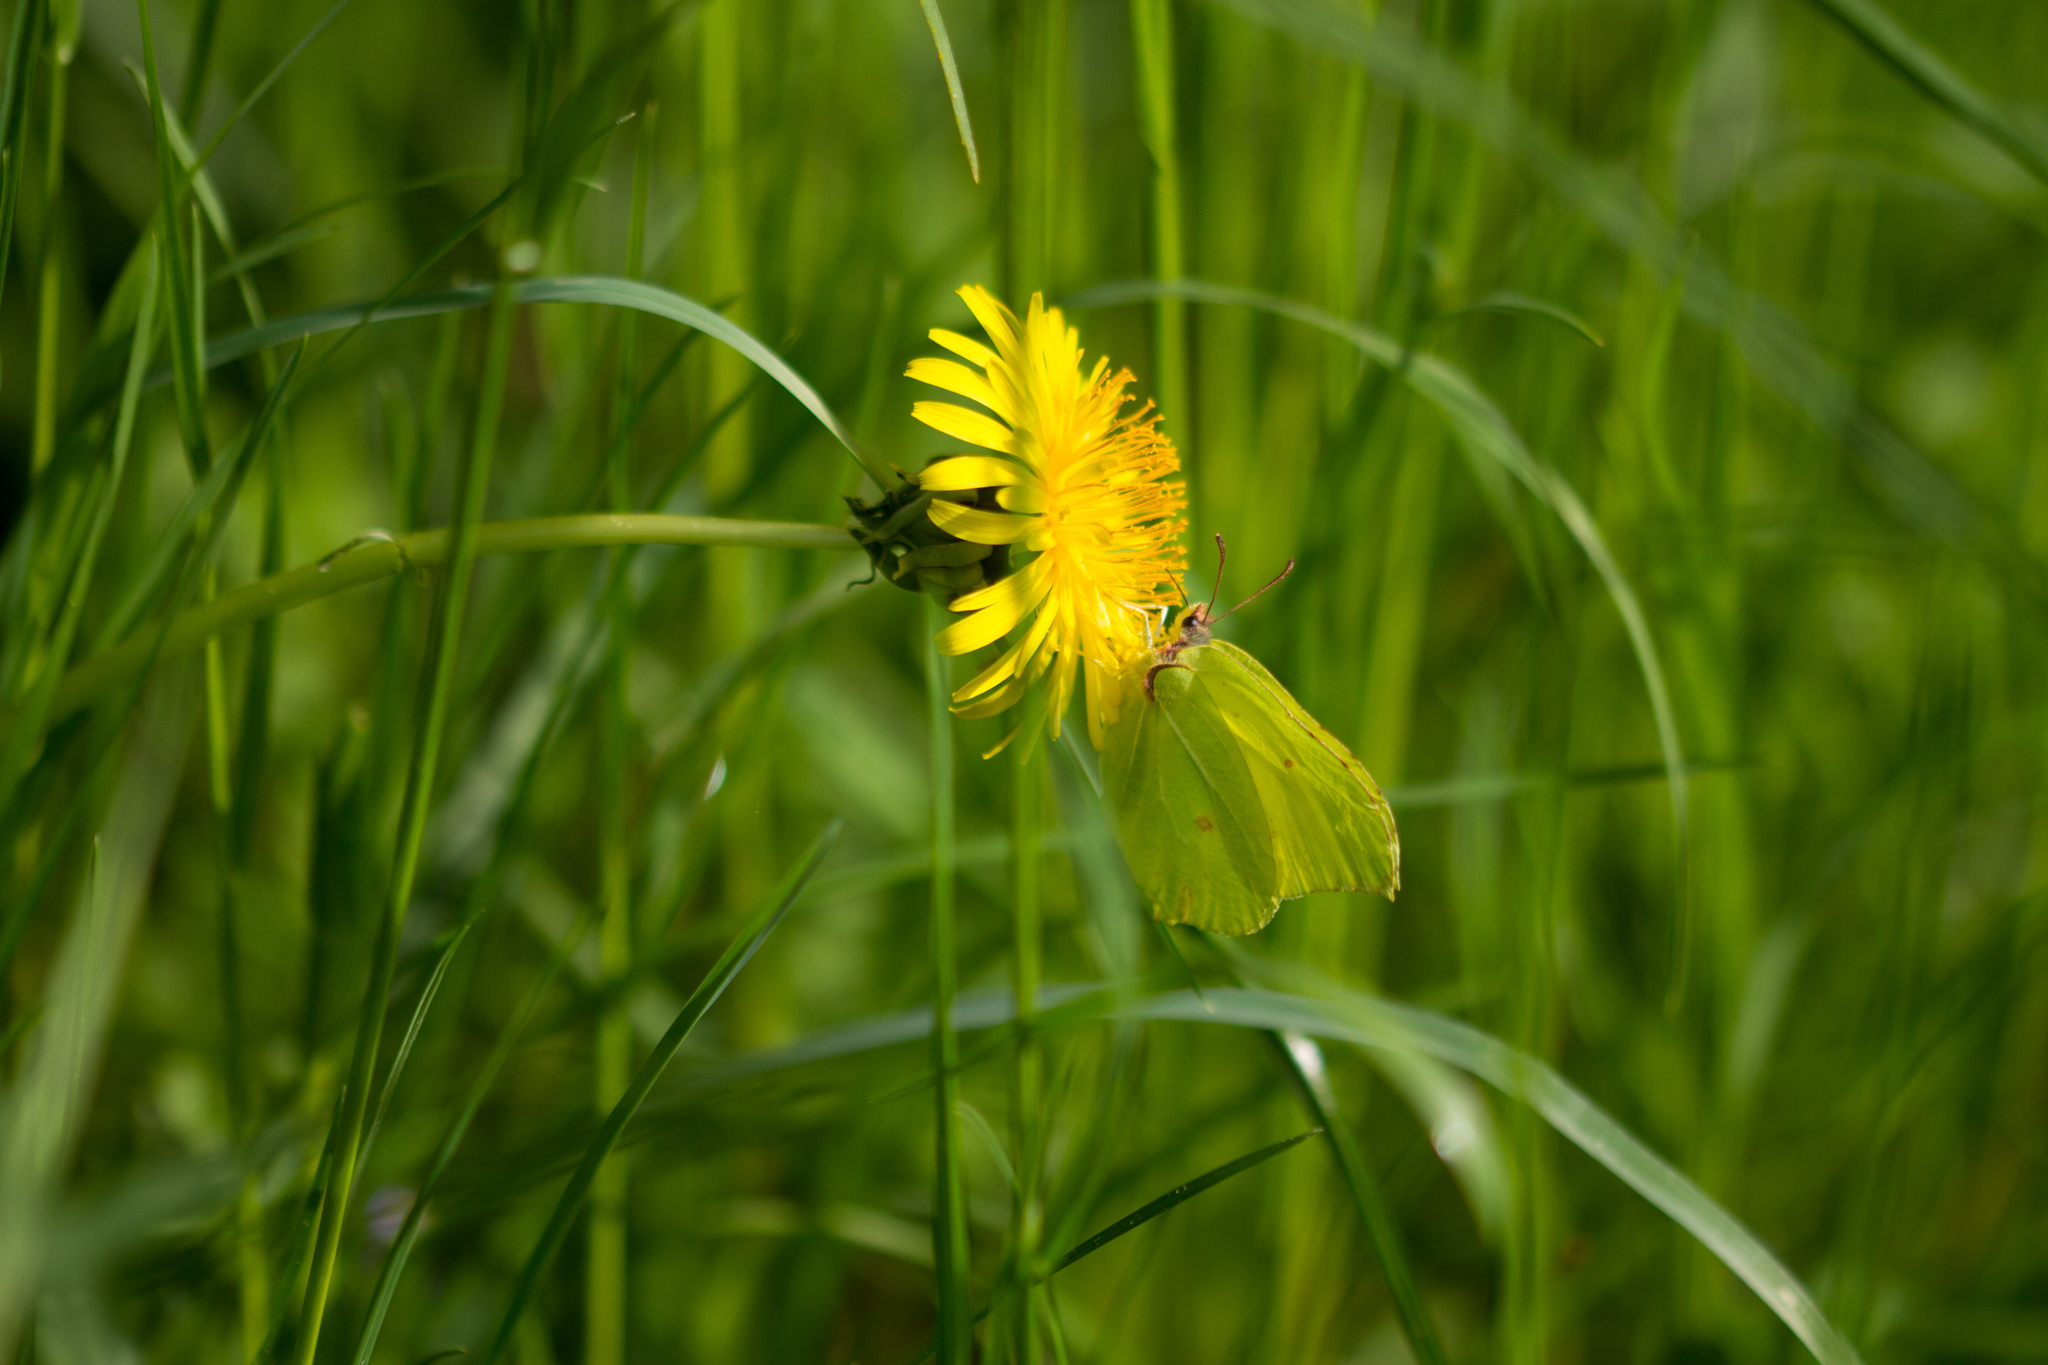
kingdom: Animalia
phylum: Arthropoda
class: Insecta
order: Lepidoptera
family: Pieridae
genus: Gonepteryx
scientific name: Gonepteryx rhamni
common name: Brimstone
